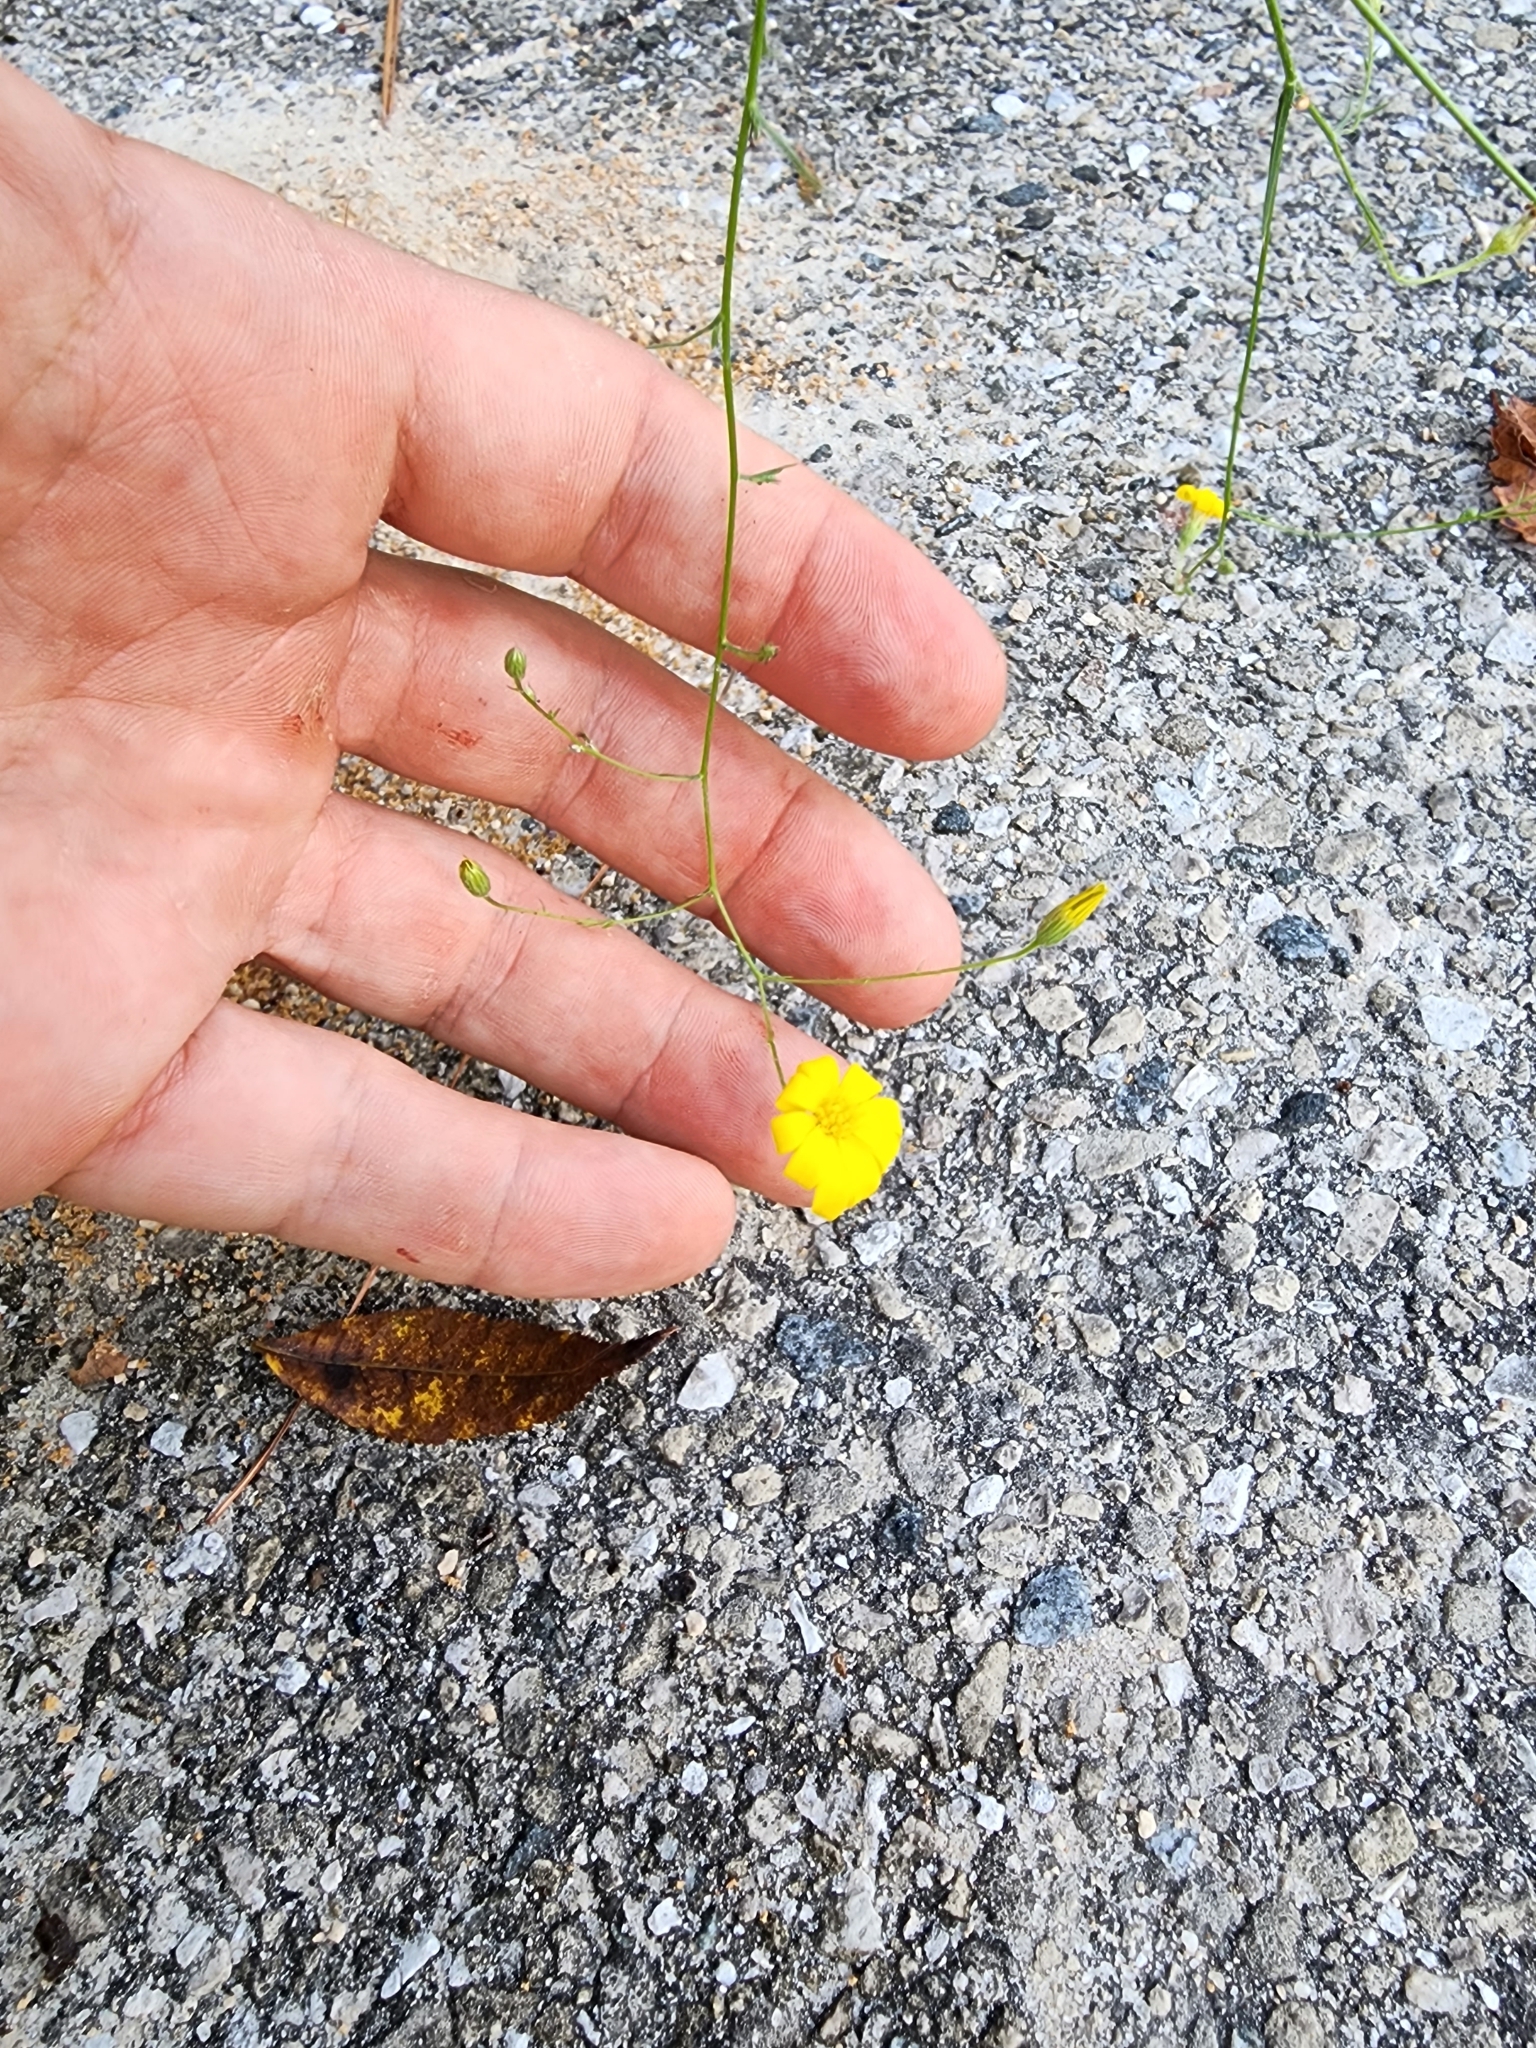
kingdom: Plantae
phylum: Tracheophyta
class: Magnoliopsida
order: Asterales
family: Asteraceae
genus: Croptilon
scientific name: Croptilon divaricatum
